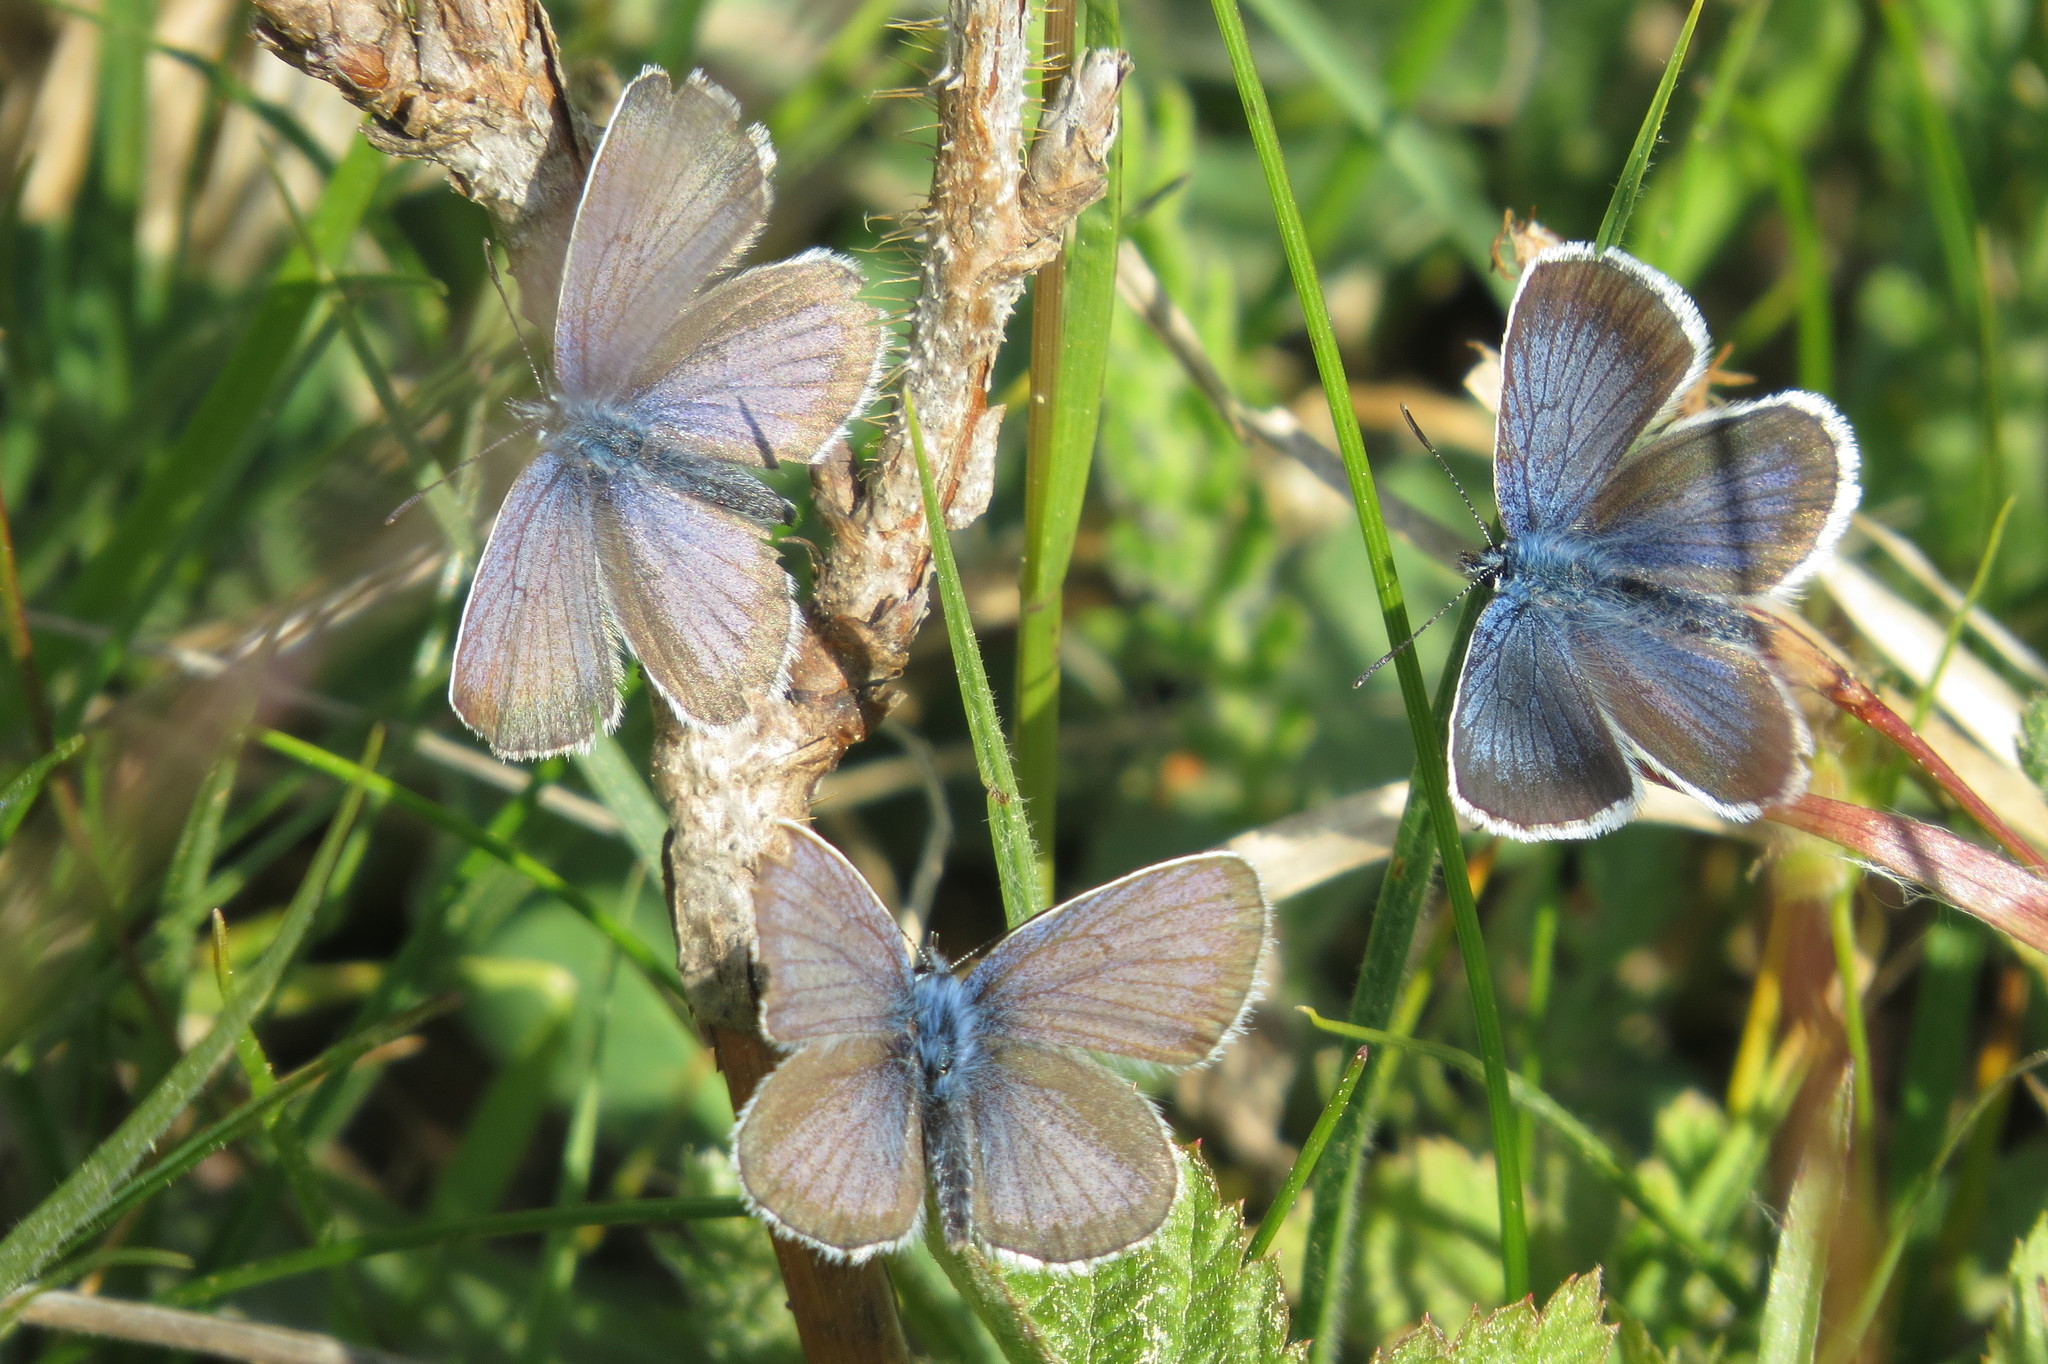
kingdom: Animalia
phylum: Arthropoda
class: Insecta
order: Lepidoptera
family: Lycaenidae
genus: Plebejus
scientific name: Plebejus argus
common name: Silver-studded blue
